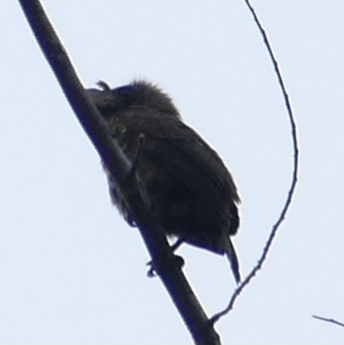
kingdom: Animalia
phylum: Chordata
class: Aves
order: Piciformes
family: Lybiidae
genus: Gymnobucco
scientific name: Gymnobucco peli
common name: Bristle-nosed barbet
